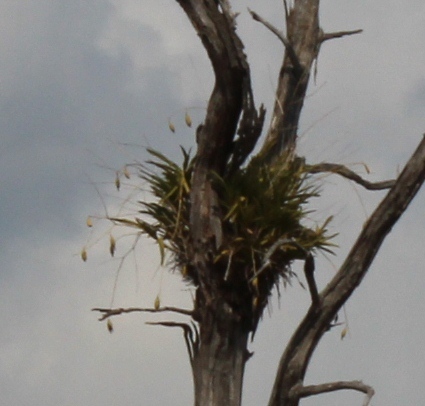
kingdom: Plantae
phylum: Tracheophyta
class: Liliopsida
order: Asparagales
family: Orchidaceae
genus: Ansellia
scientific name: Ansellia africana
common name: African ansellia
